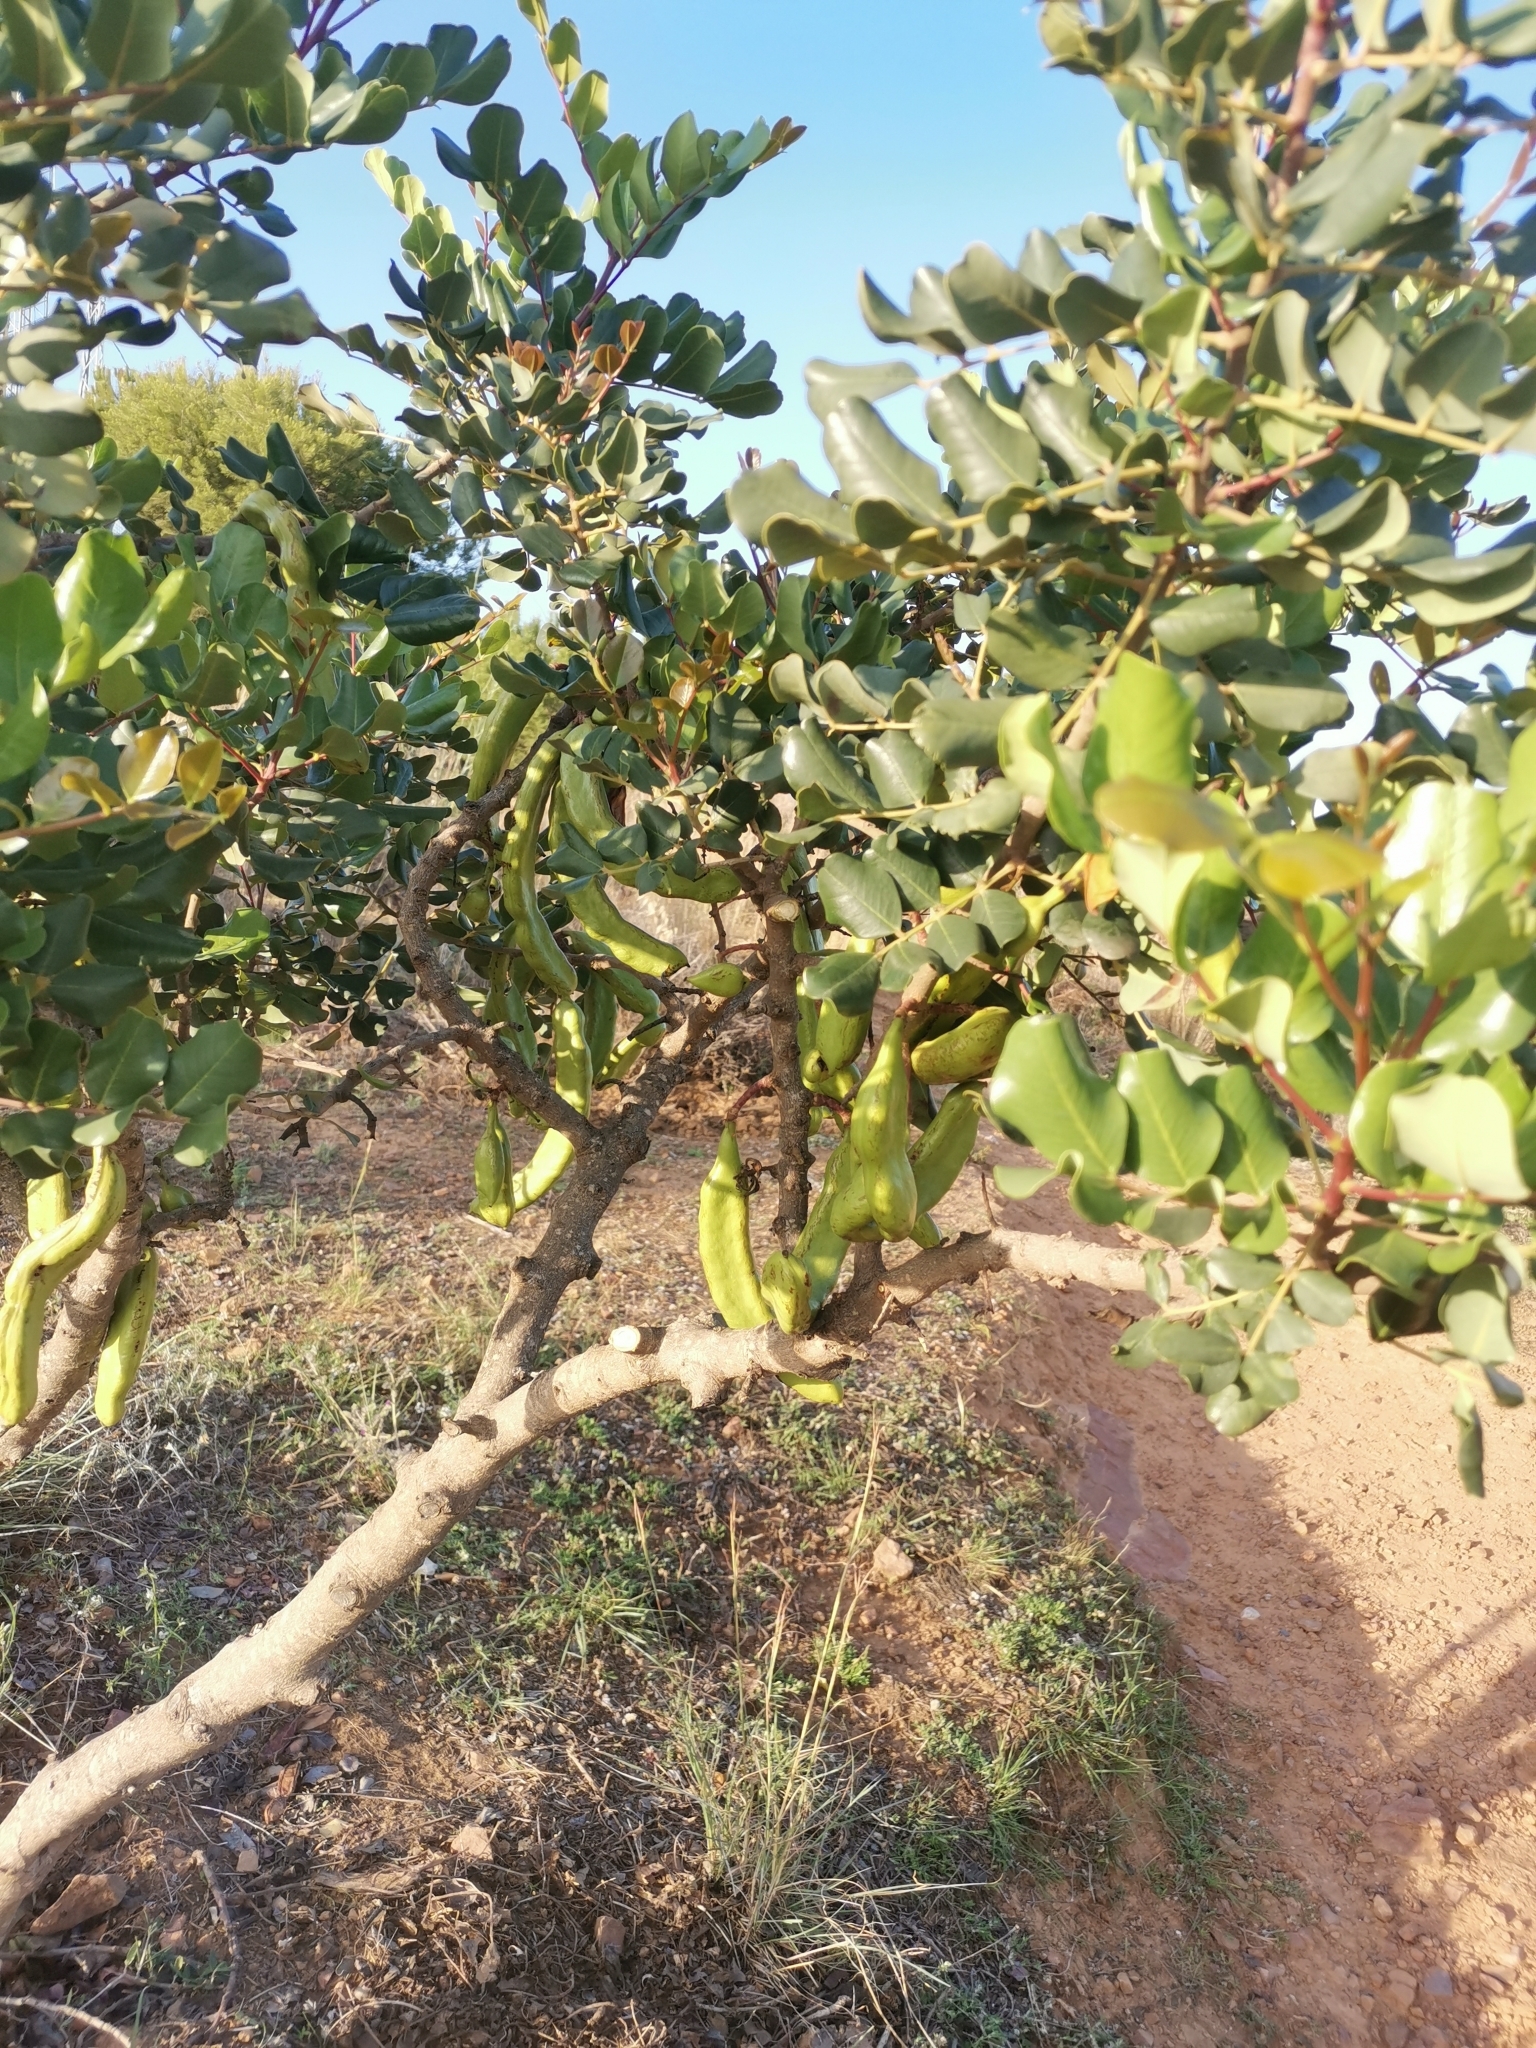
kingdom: Plantae
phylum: Tracheophyta
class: Magnoliopsida
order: Fabales
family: Fabaceae
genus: Ceratonia
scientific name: Ceratonia siliqua
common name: Carob
